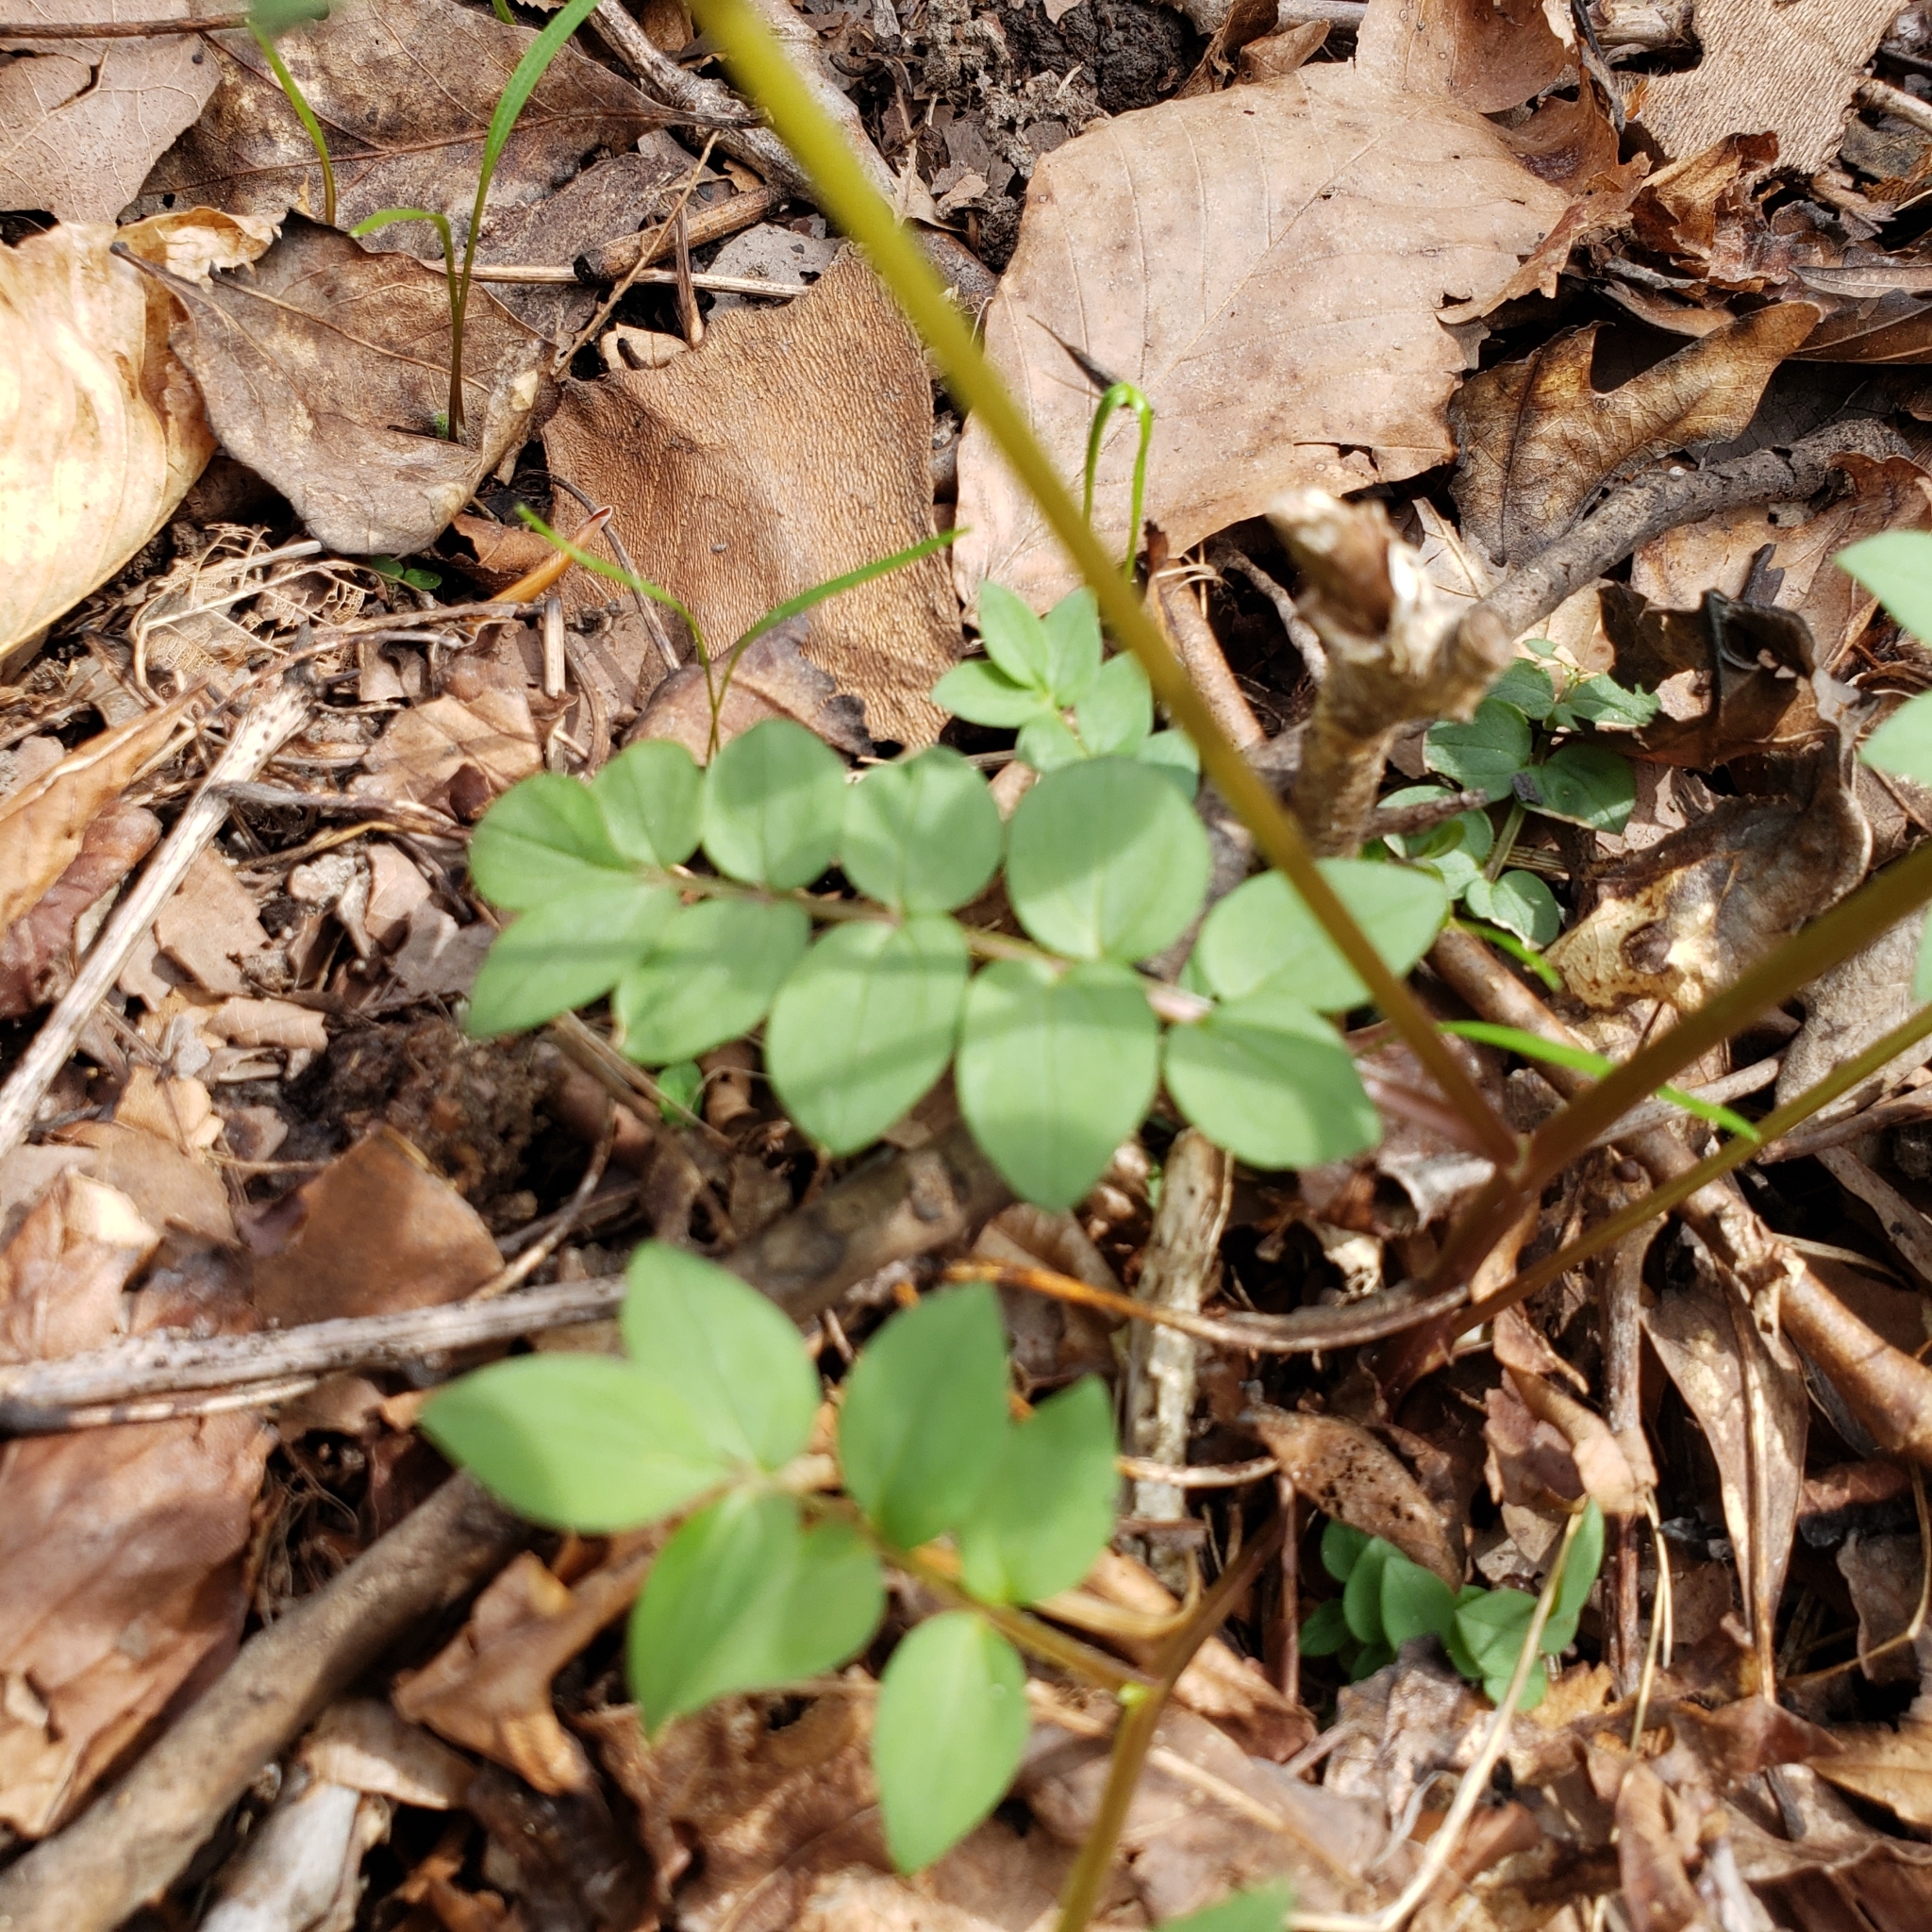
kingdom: Plantae
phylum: Tracheophyta
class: Magnoliopsida
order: Ericales
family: Polemoniaceae
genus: Polemonium
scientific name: Polemonium reptans
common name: Creeping jacob's-ladder
